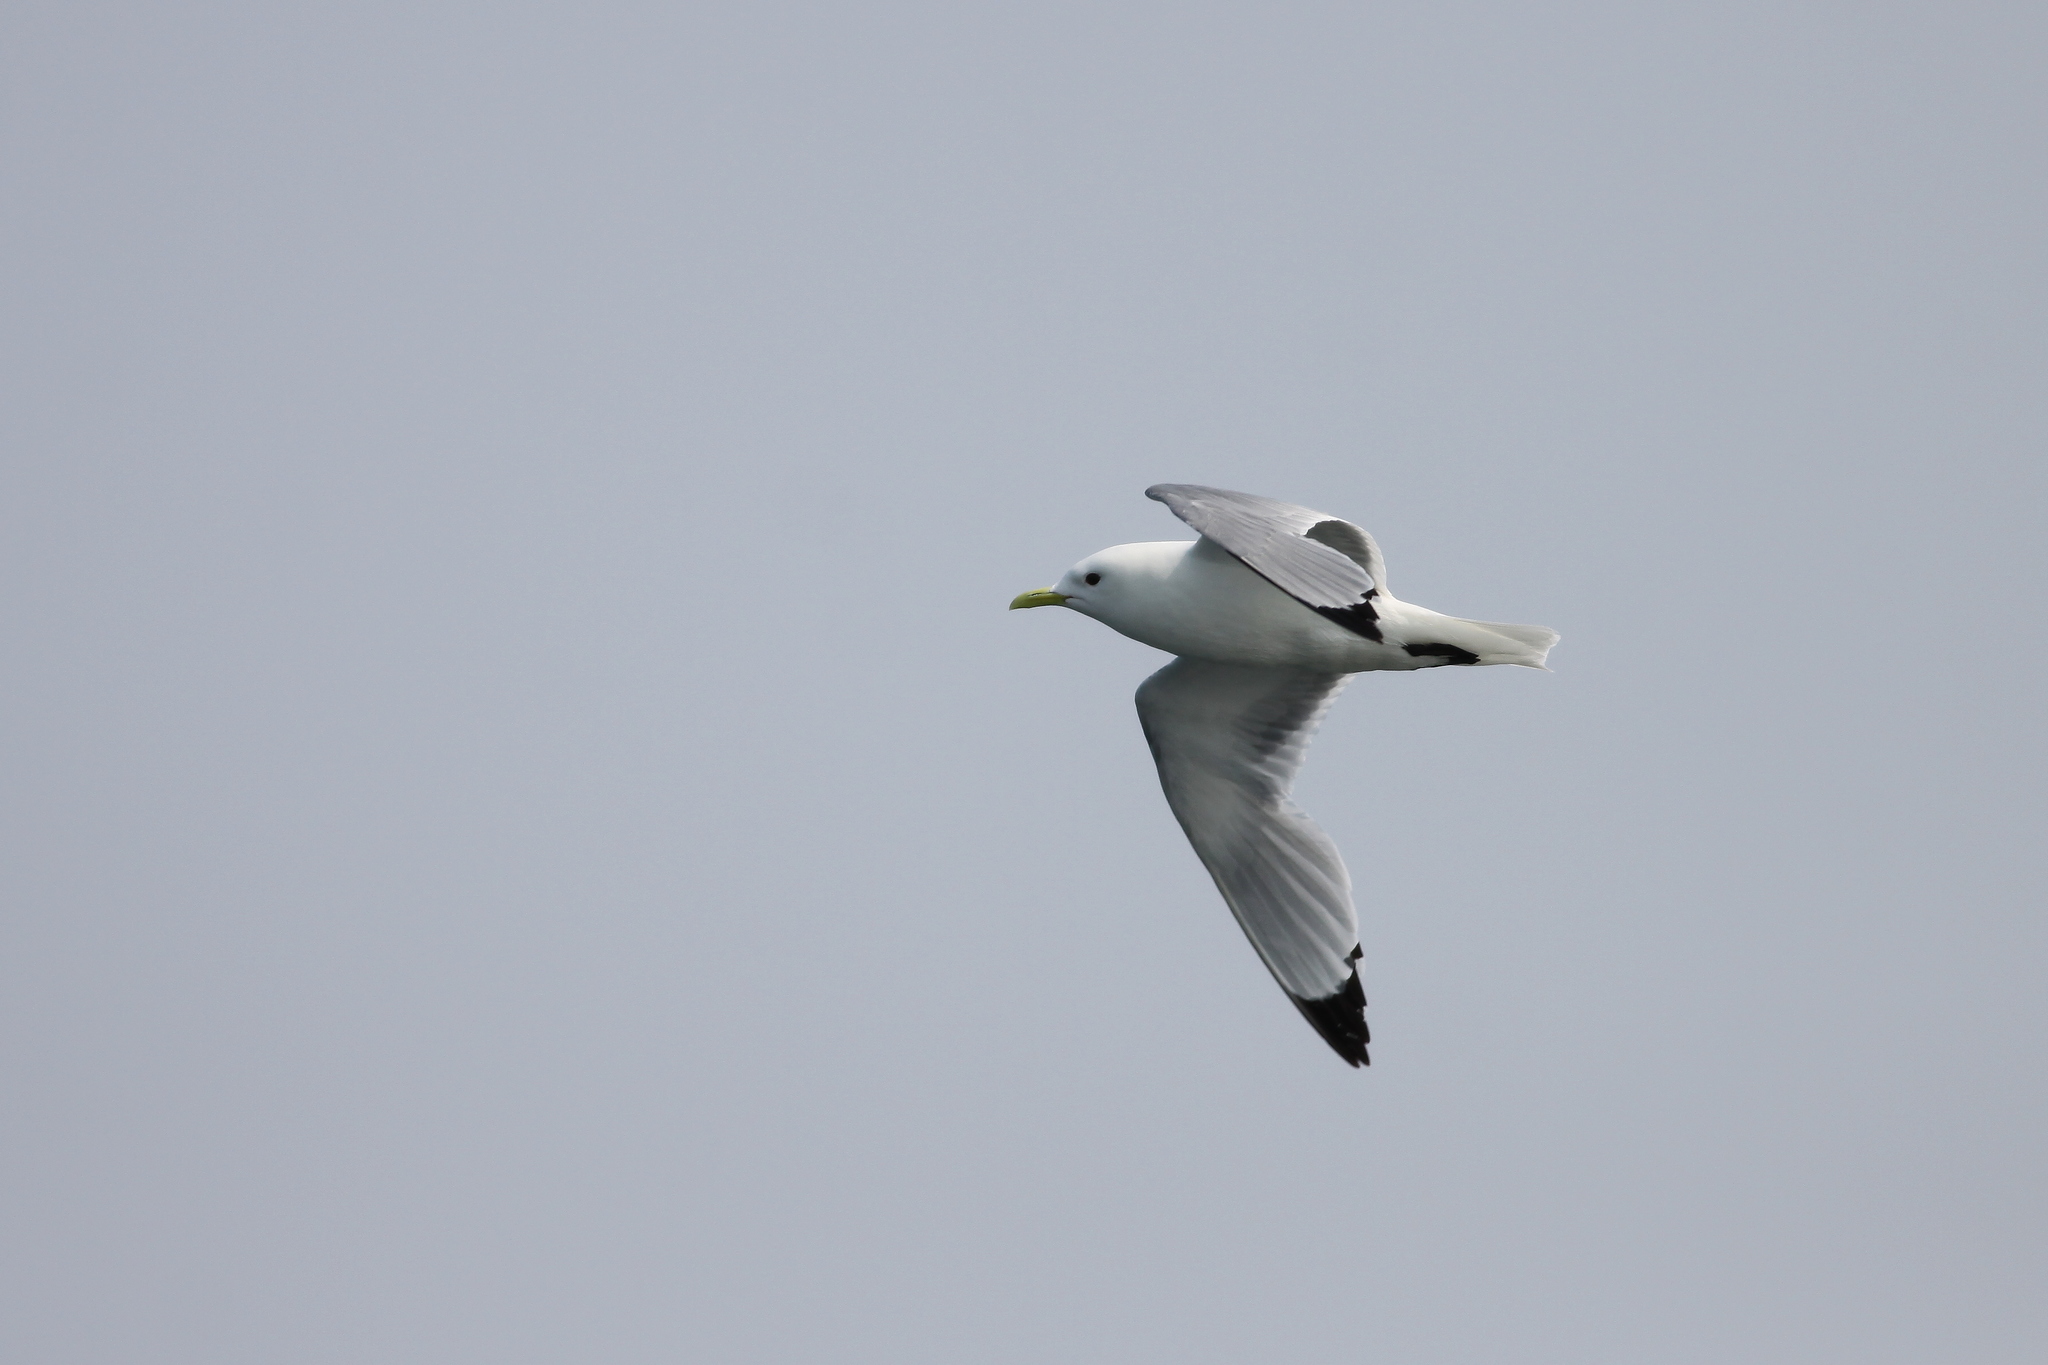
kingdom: Animalia
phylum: Chordata
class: Aves
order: Charadriiformes
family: Laridae
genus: Rissa
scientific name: Rissa tridactyla
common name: Black-legged kittiwake
